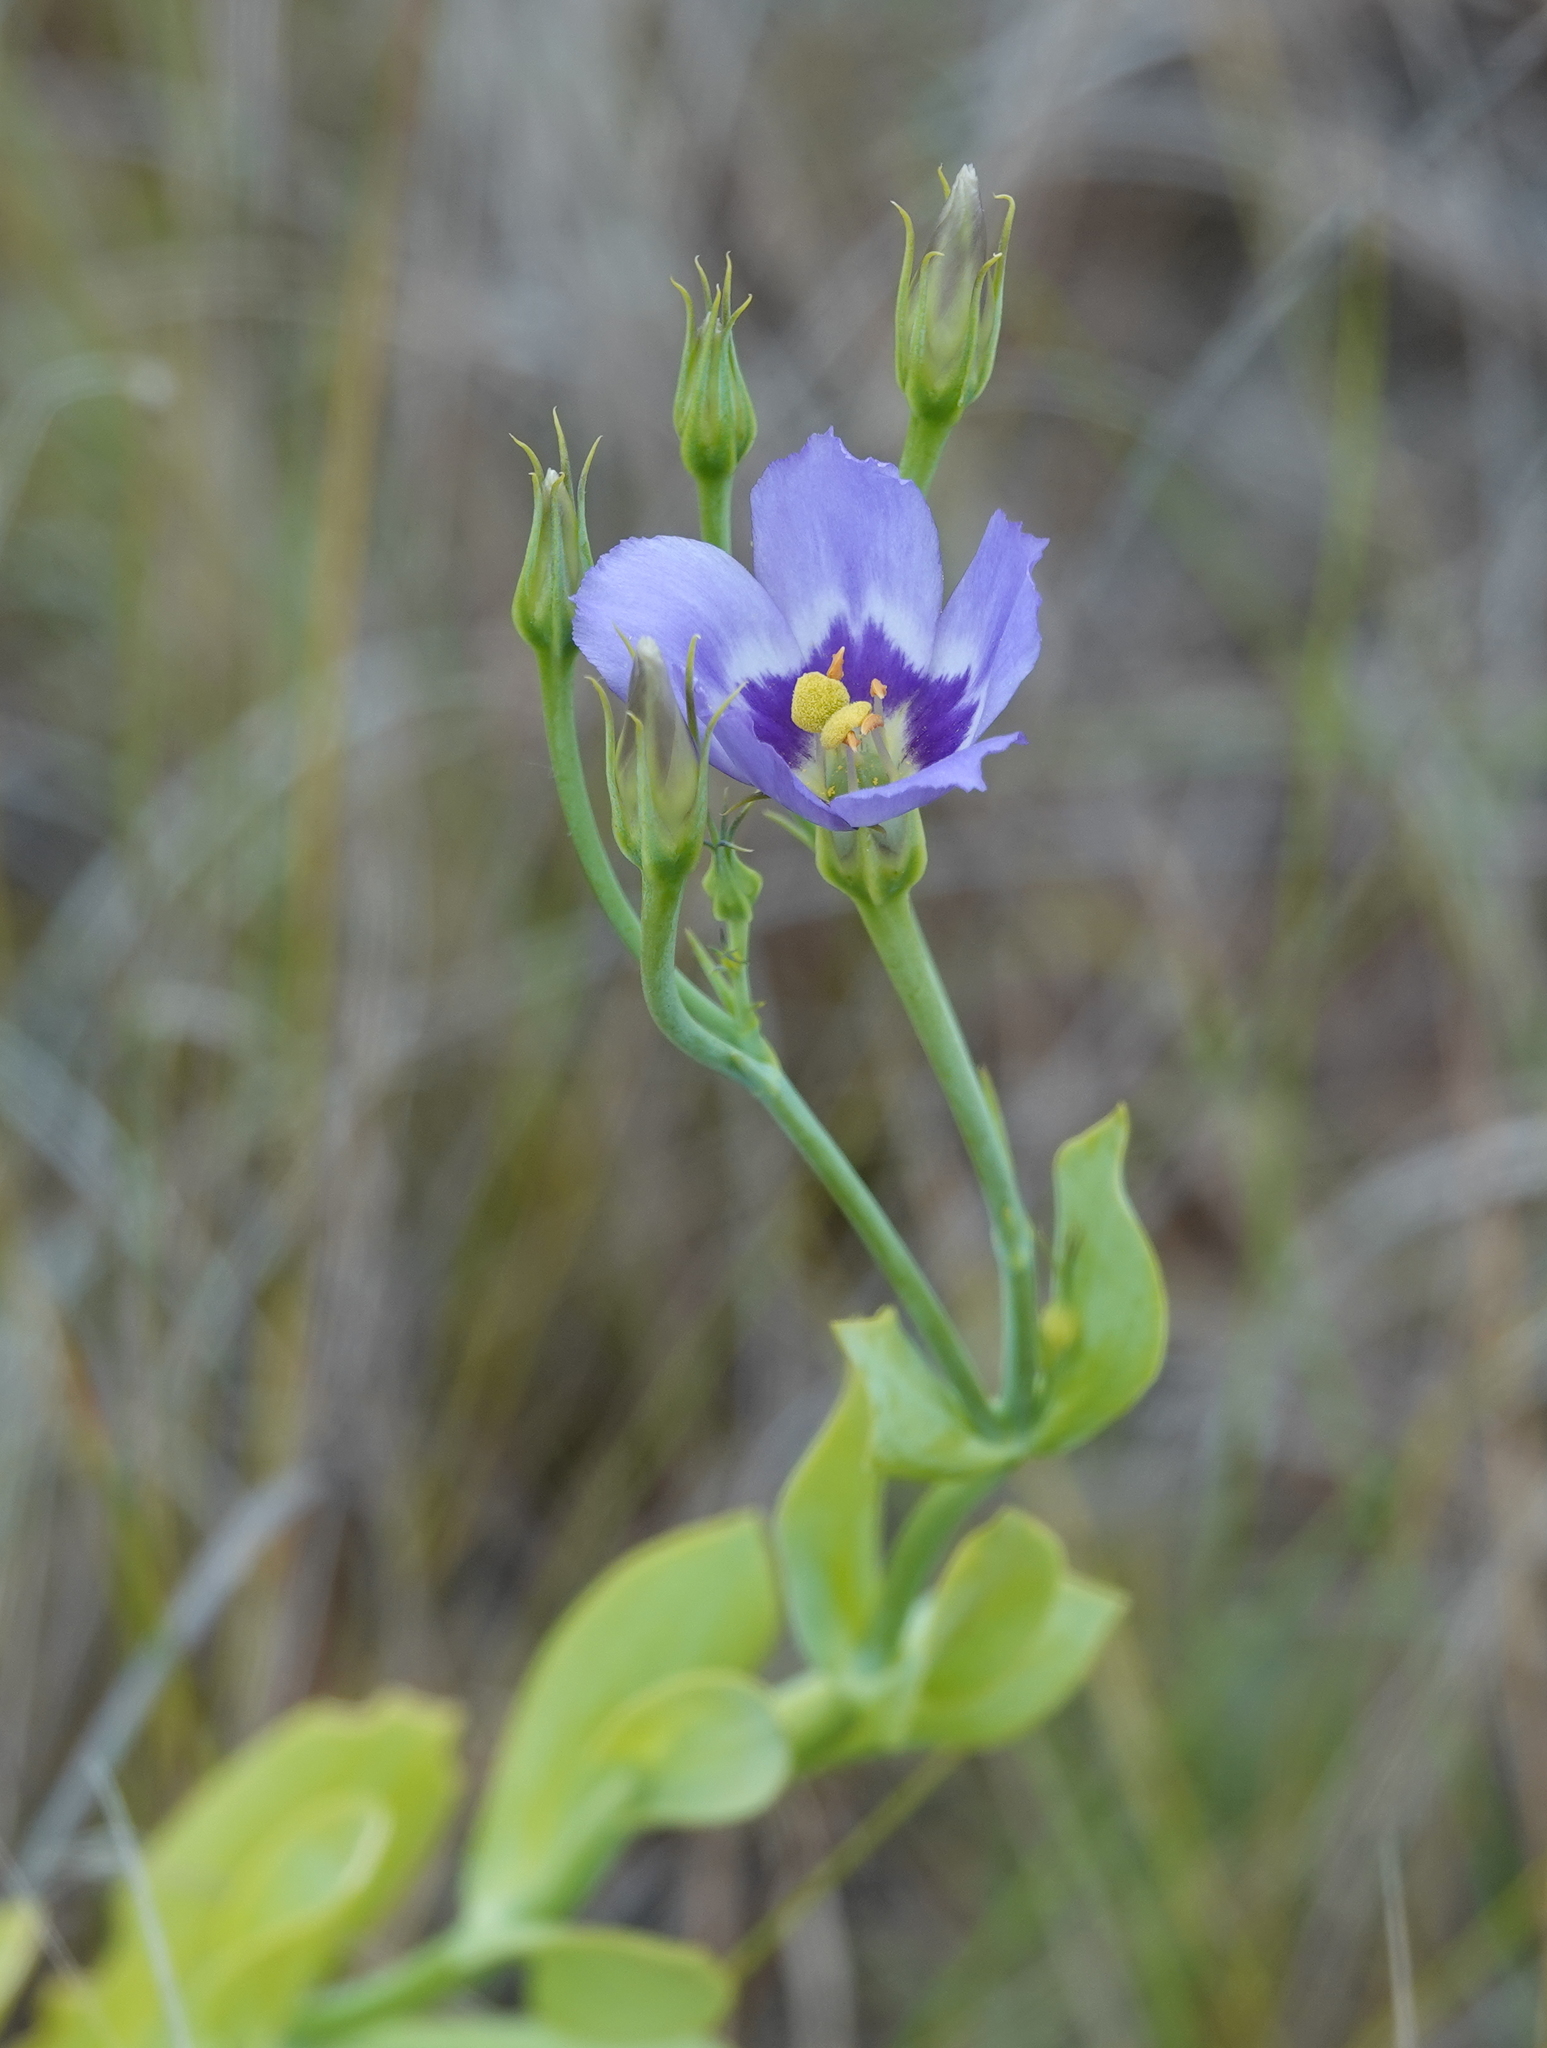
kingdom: Plantae
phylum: Tracheophyta
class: Magnoliopsida
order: Gentianales
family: Gentianaceae
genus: Eustoma
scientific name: Eustoma exaltatum
